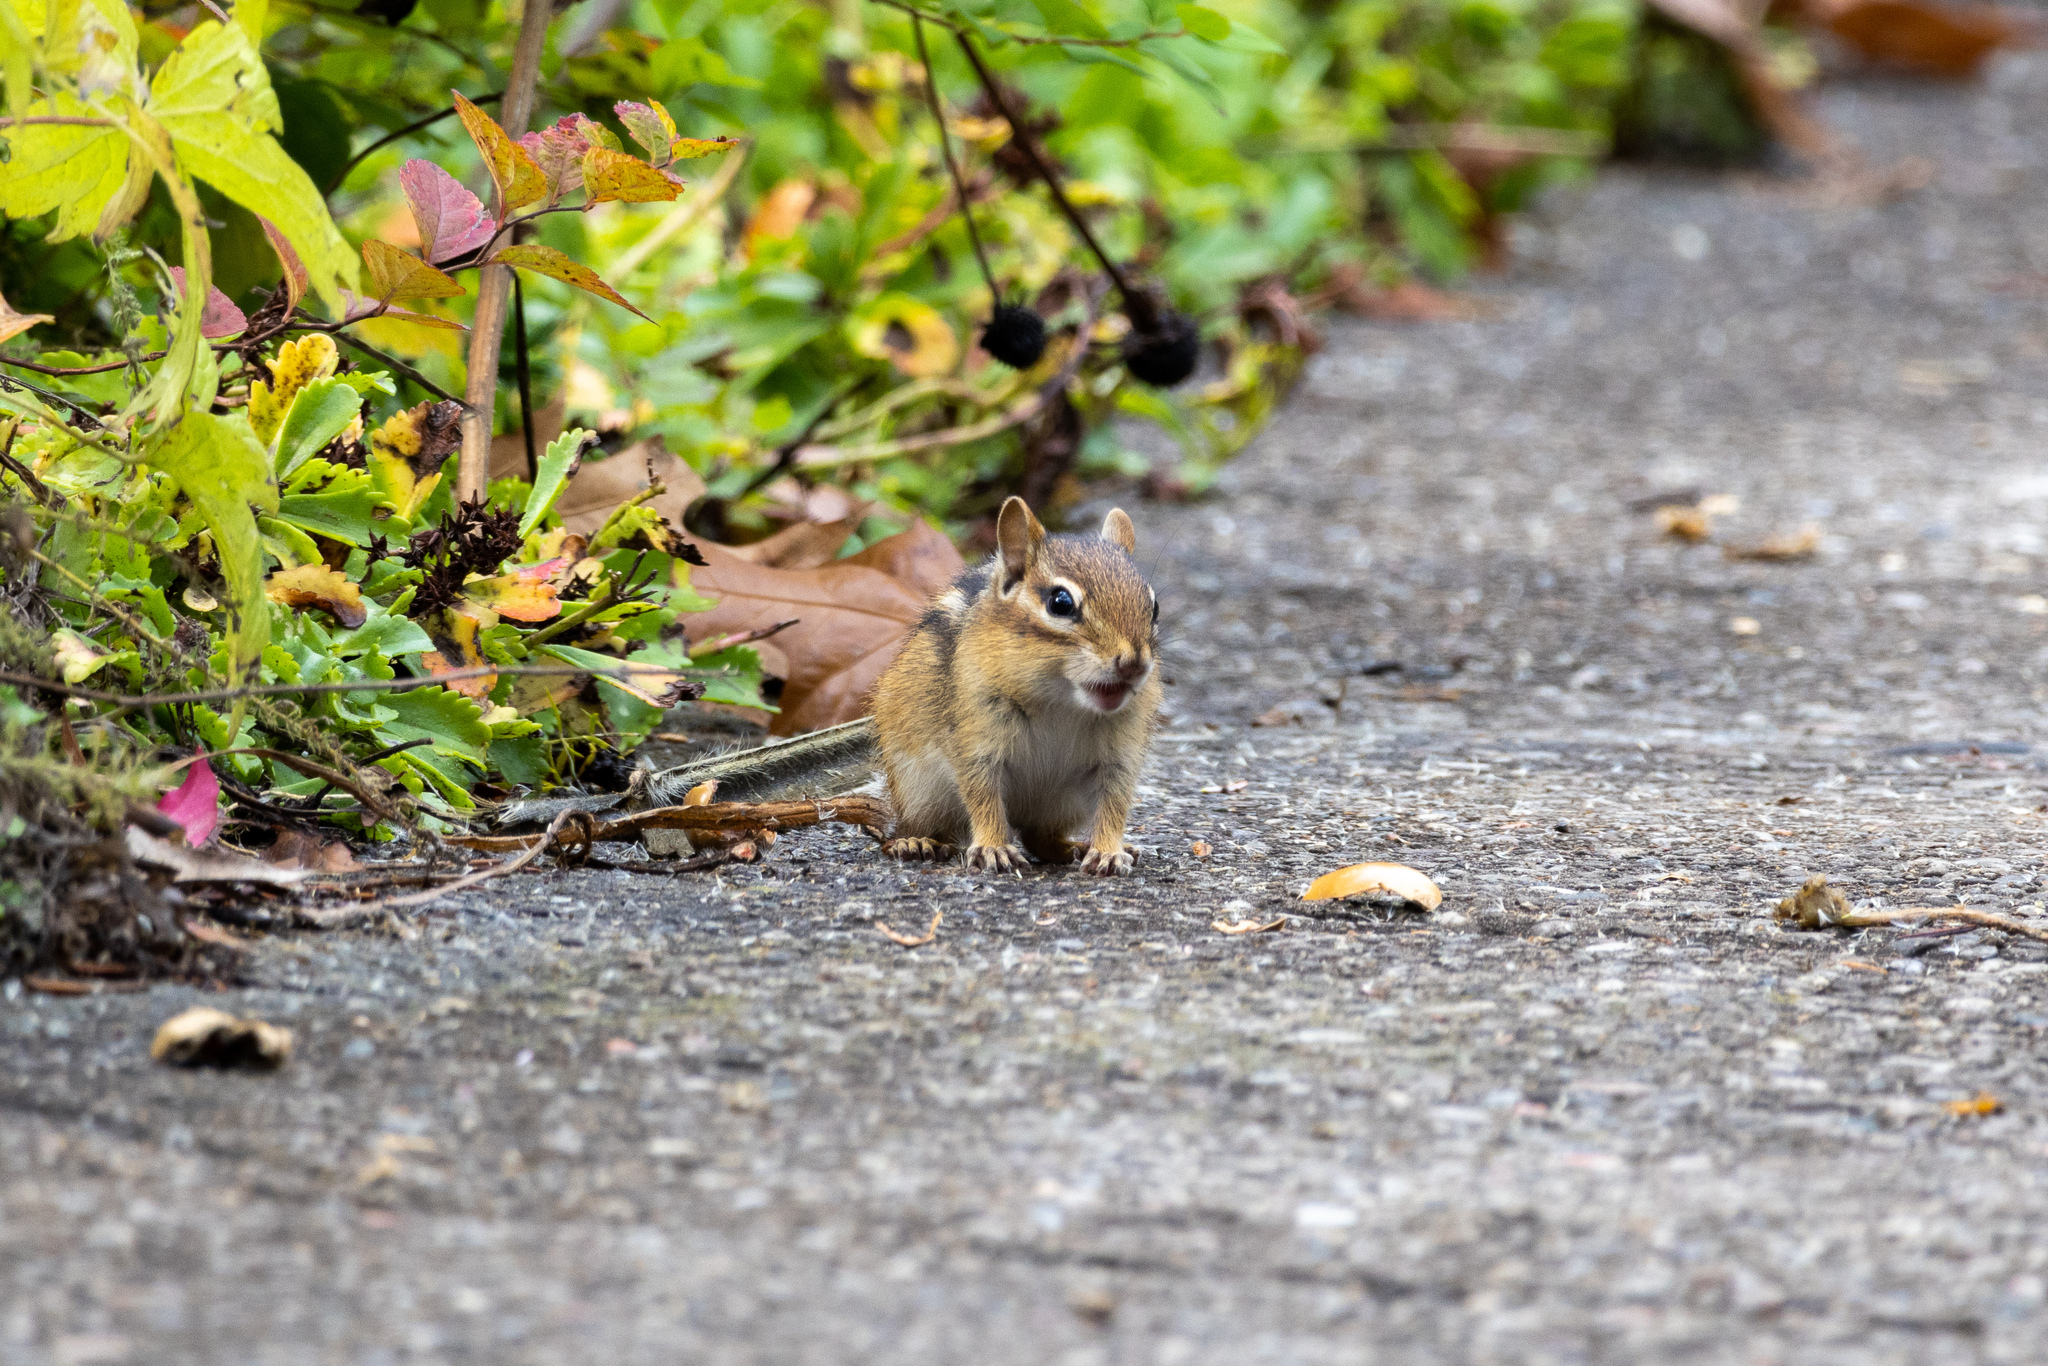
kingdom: Animalia
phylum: Chordata
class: Mammalia
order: Rodentia
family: Sciuridae
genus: Tamias
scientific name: Tamias striatus
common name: Eastern chipmunk
